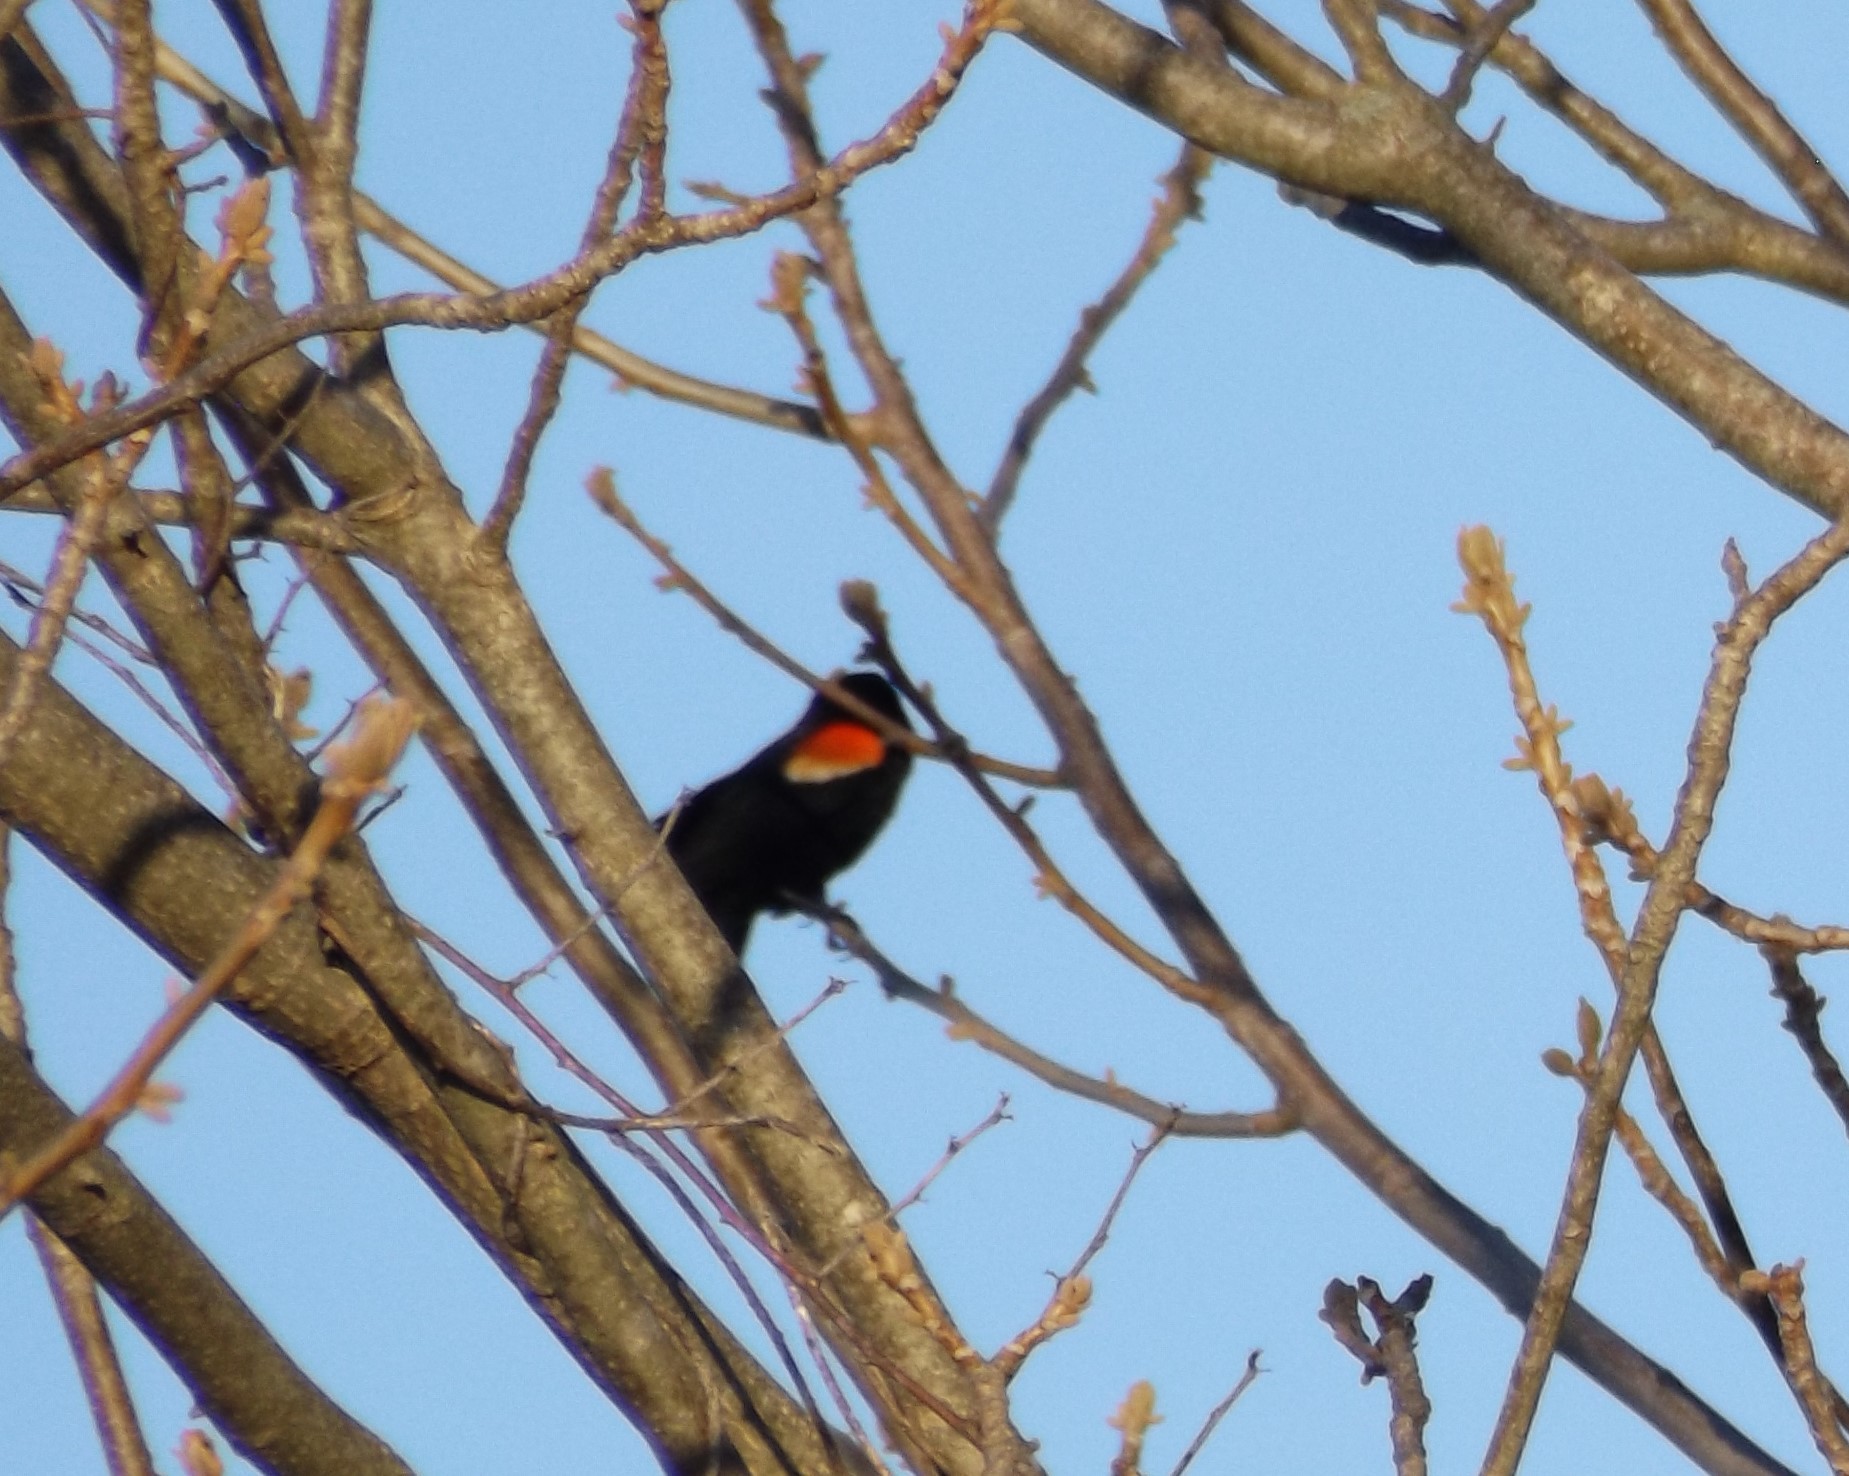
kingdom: Animalia
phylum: Chordata
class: Aves
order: Passeriformes
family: Icteridae
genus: Agelaius
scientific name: Agelaius phoeniceus
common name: Red-winged blackbird
